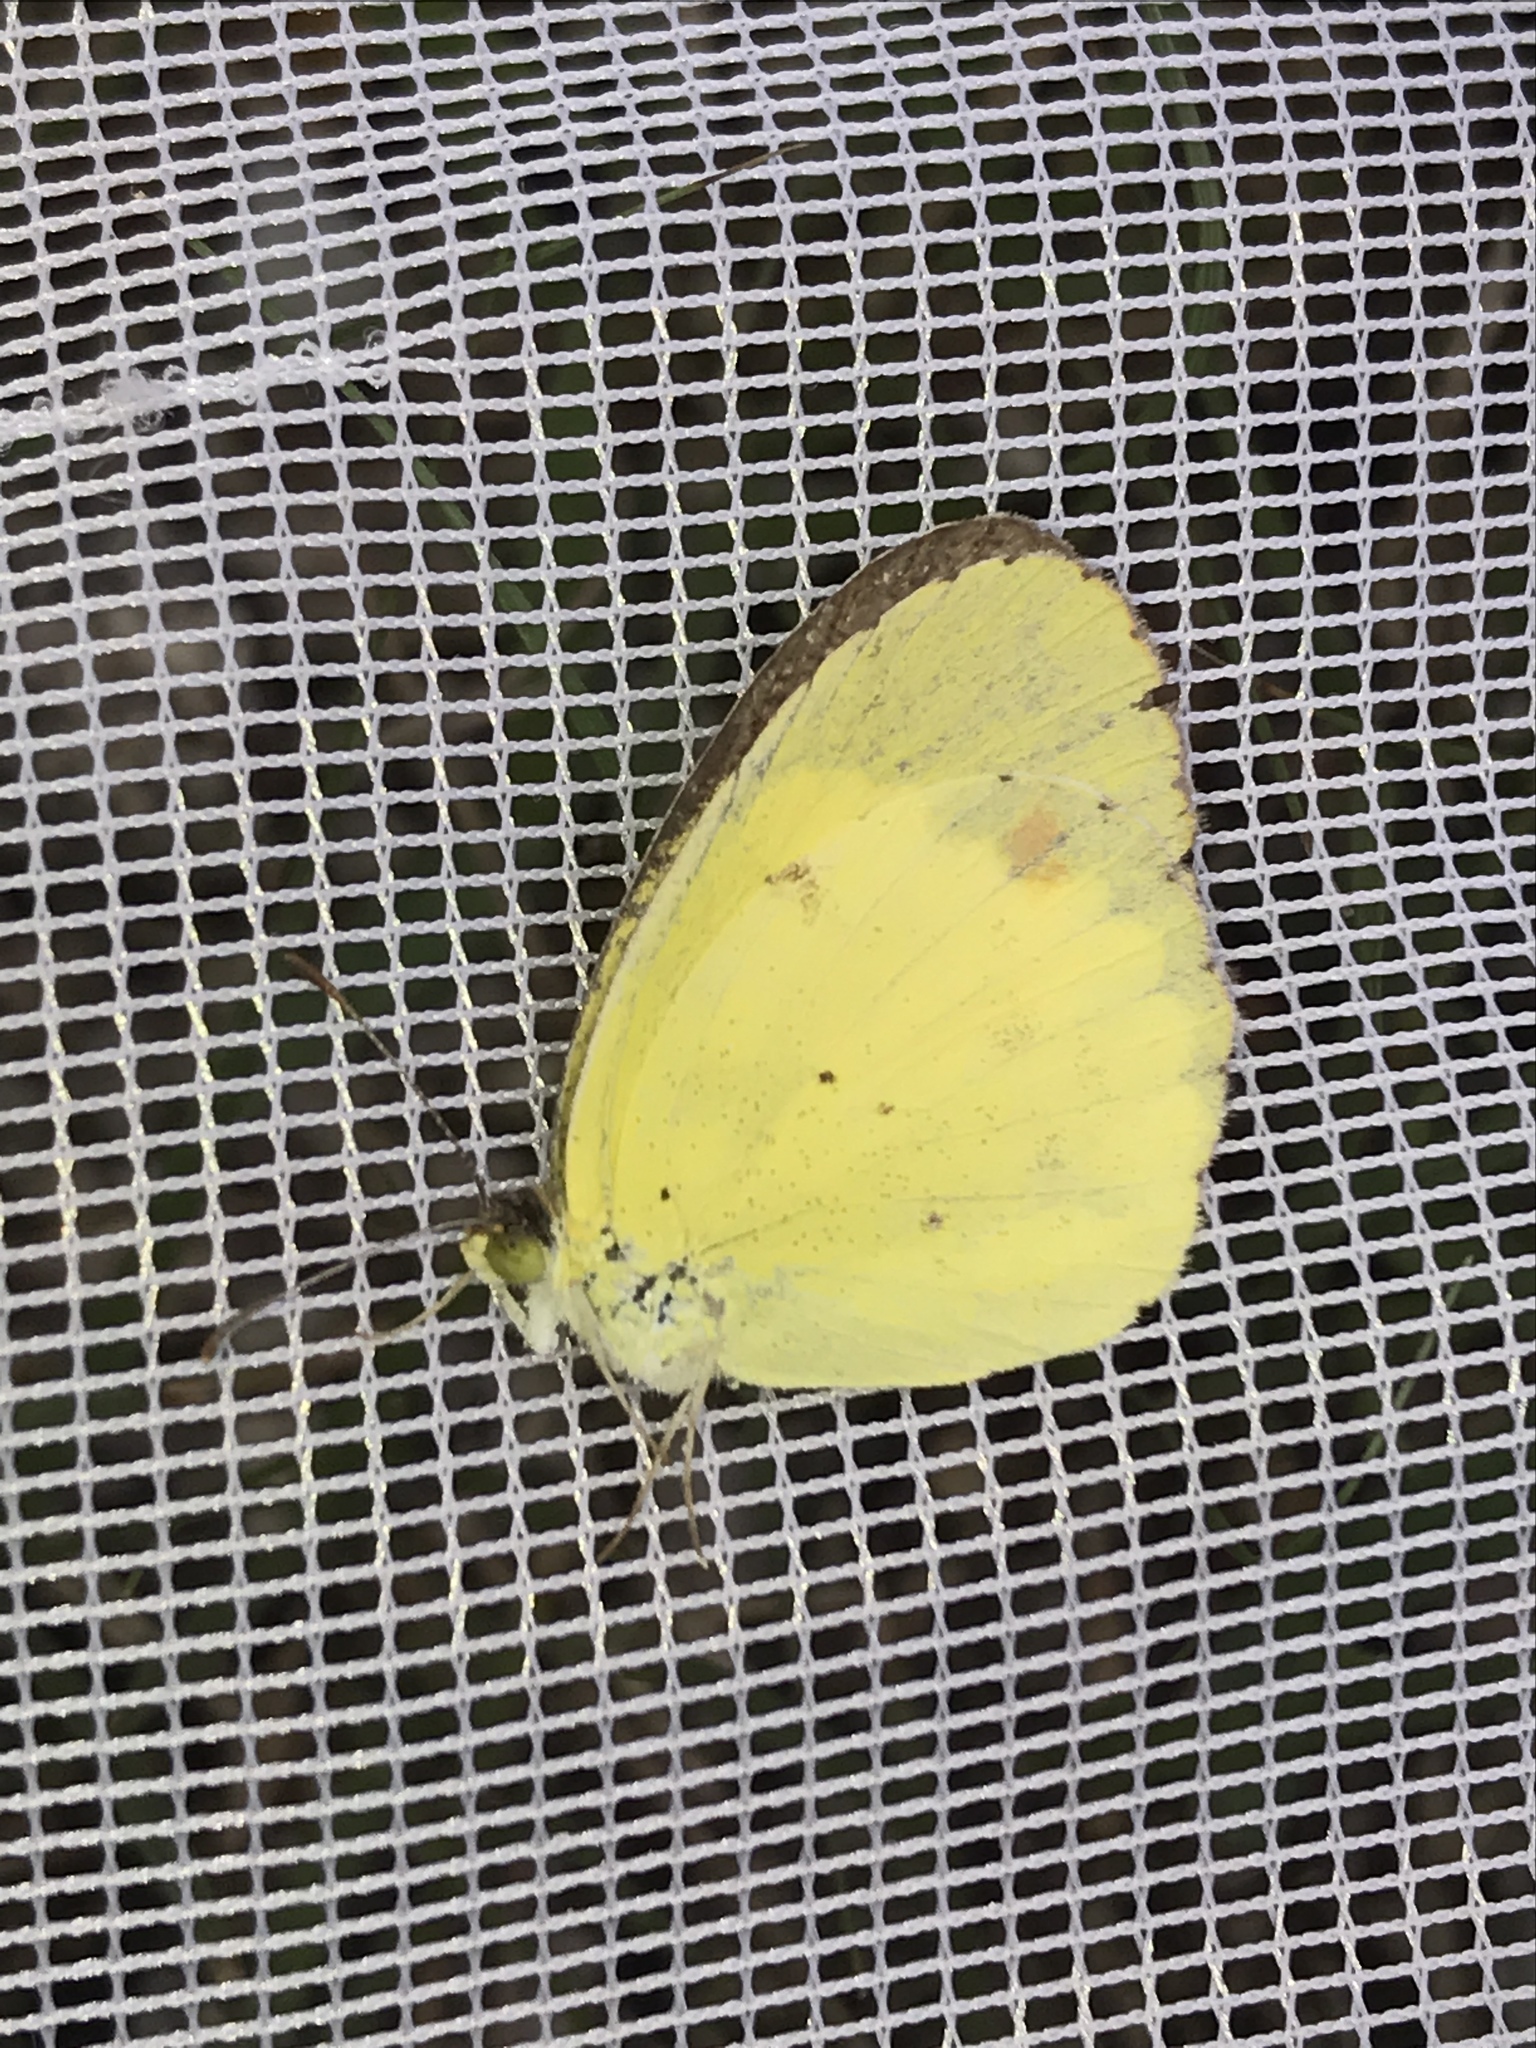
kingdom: Animalia
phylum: Arthropoda
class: Insecta
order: Lepidoptera
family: Pieridae
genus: Pyrisitia
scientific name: Pyrisitia lisa
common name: Little yellow
